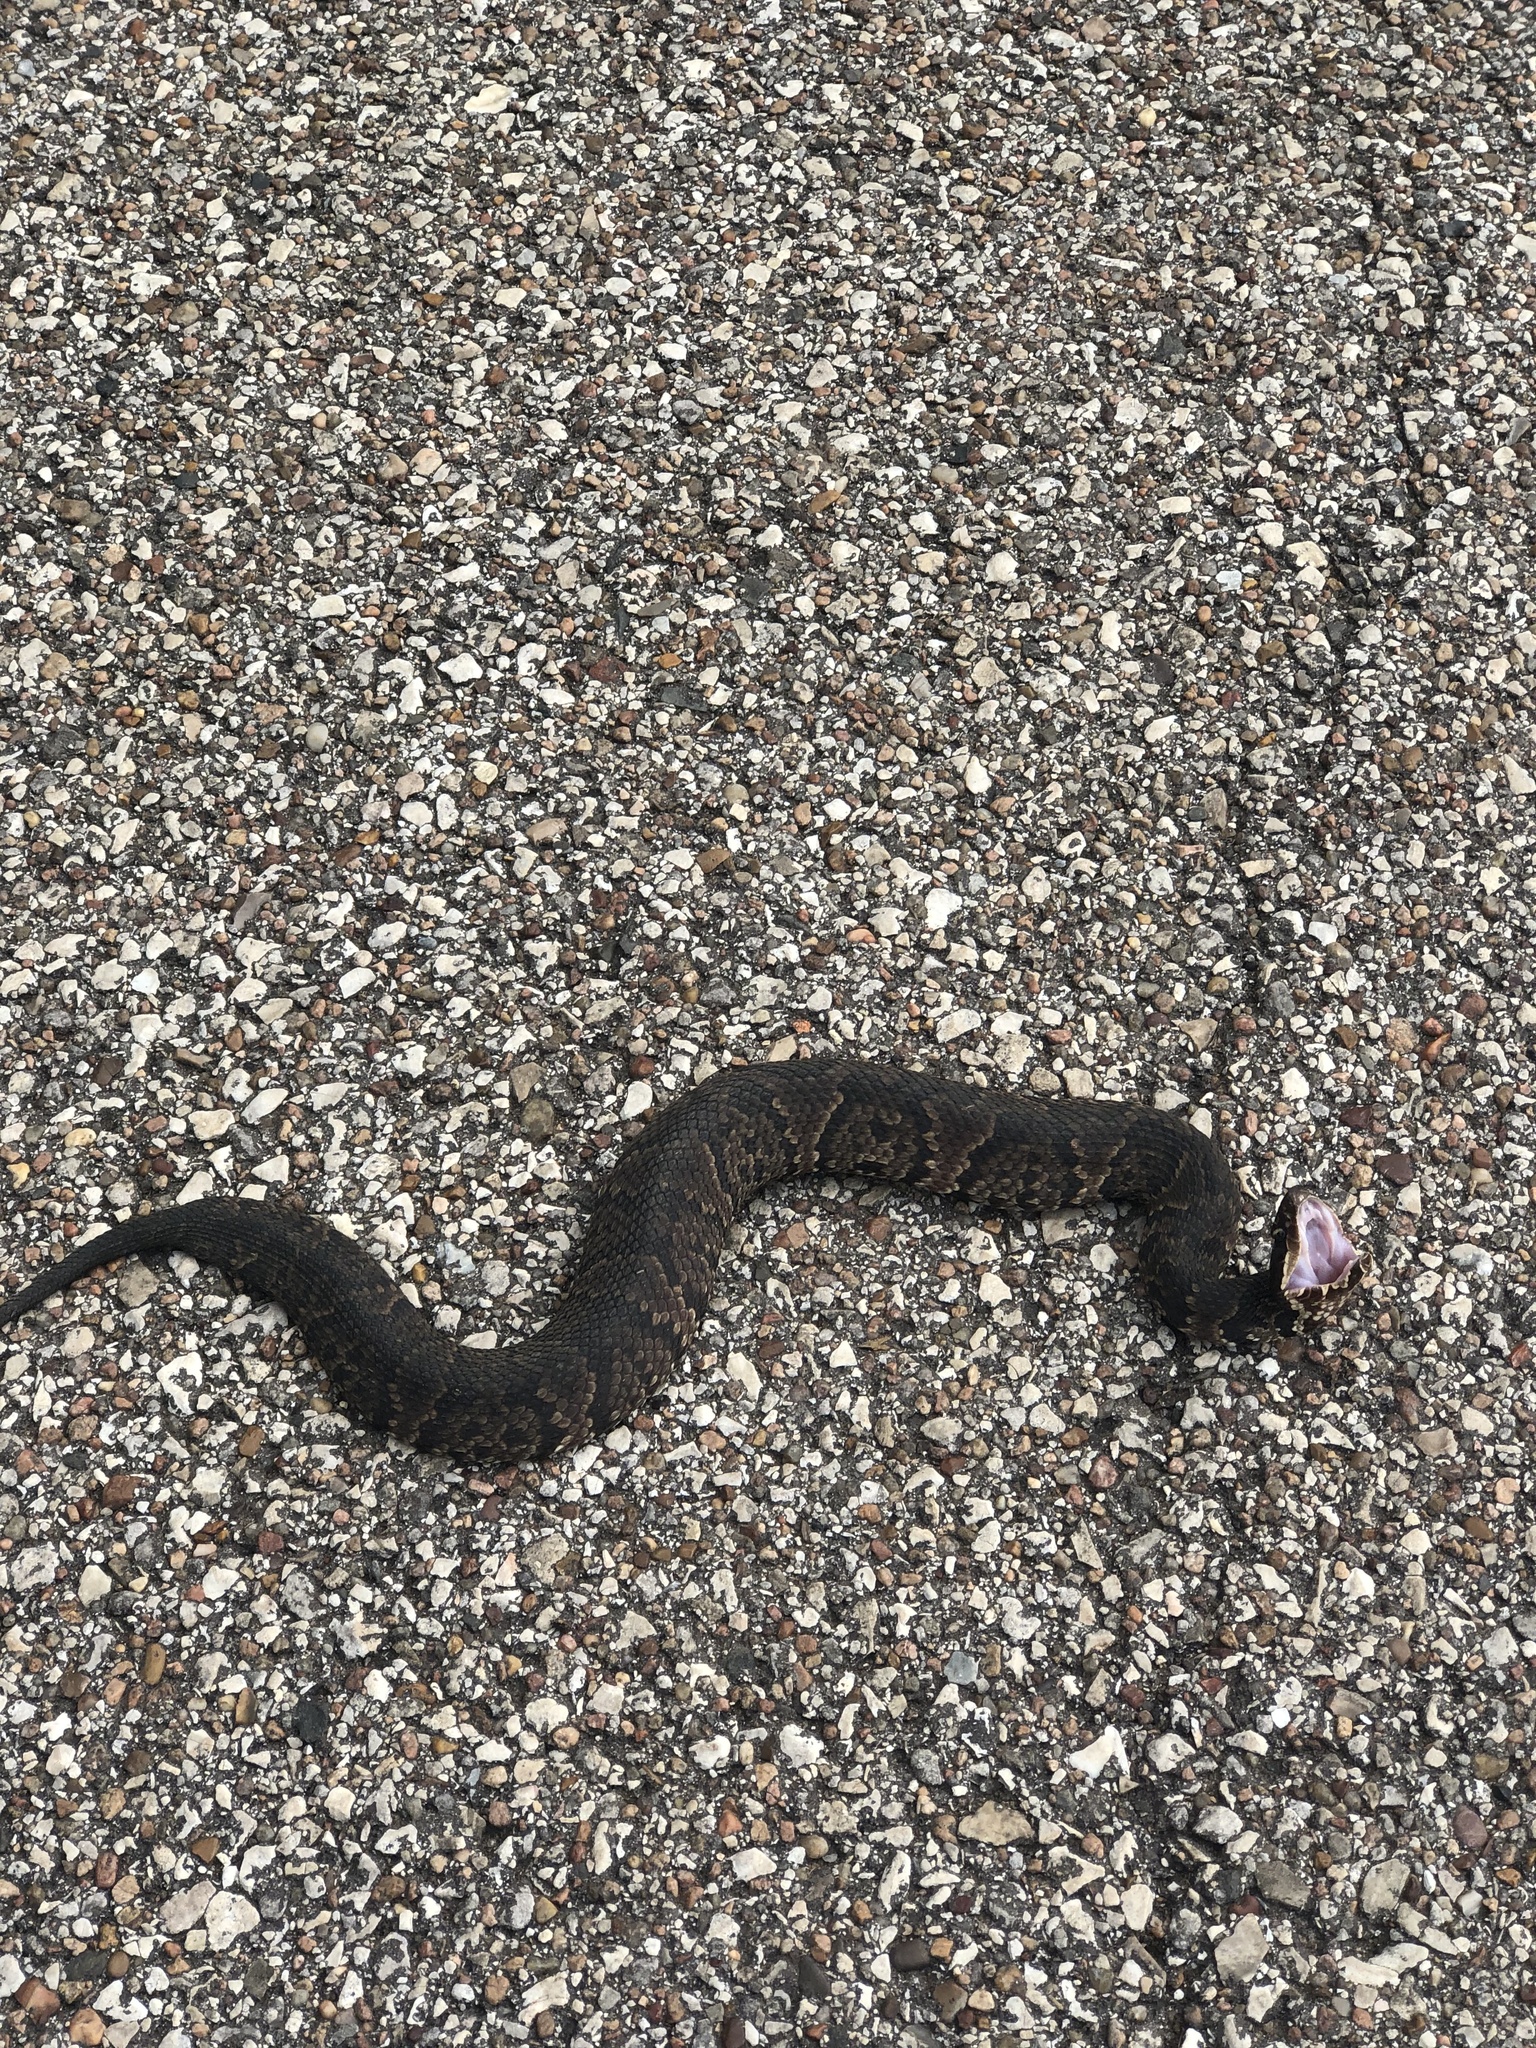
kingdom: Animalia
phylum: Chordata
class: Squamata
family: Viperidae
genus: Agkistrodon
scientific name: Agkistrodon piscivorus
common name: Cottonmouth
